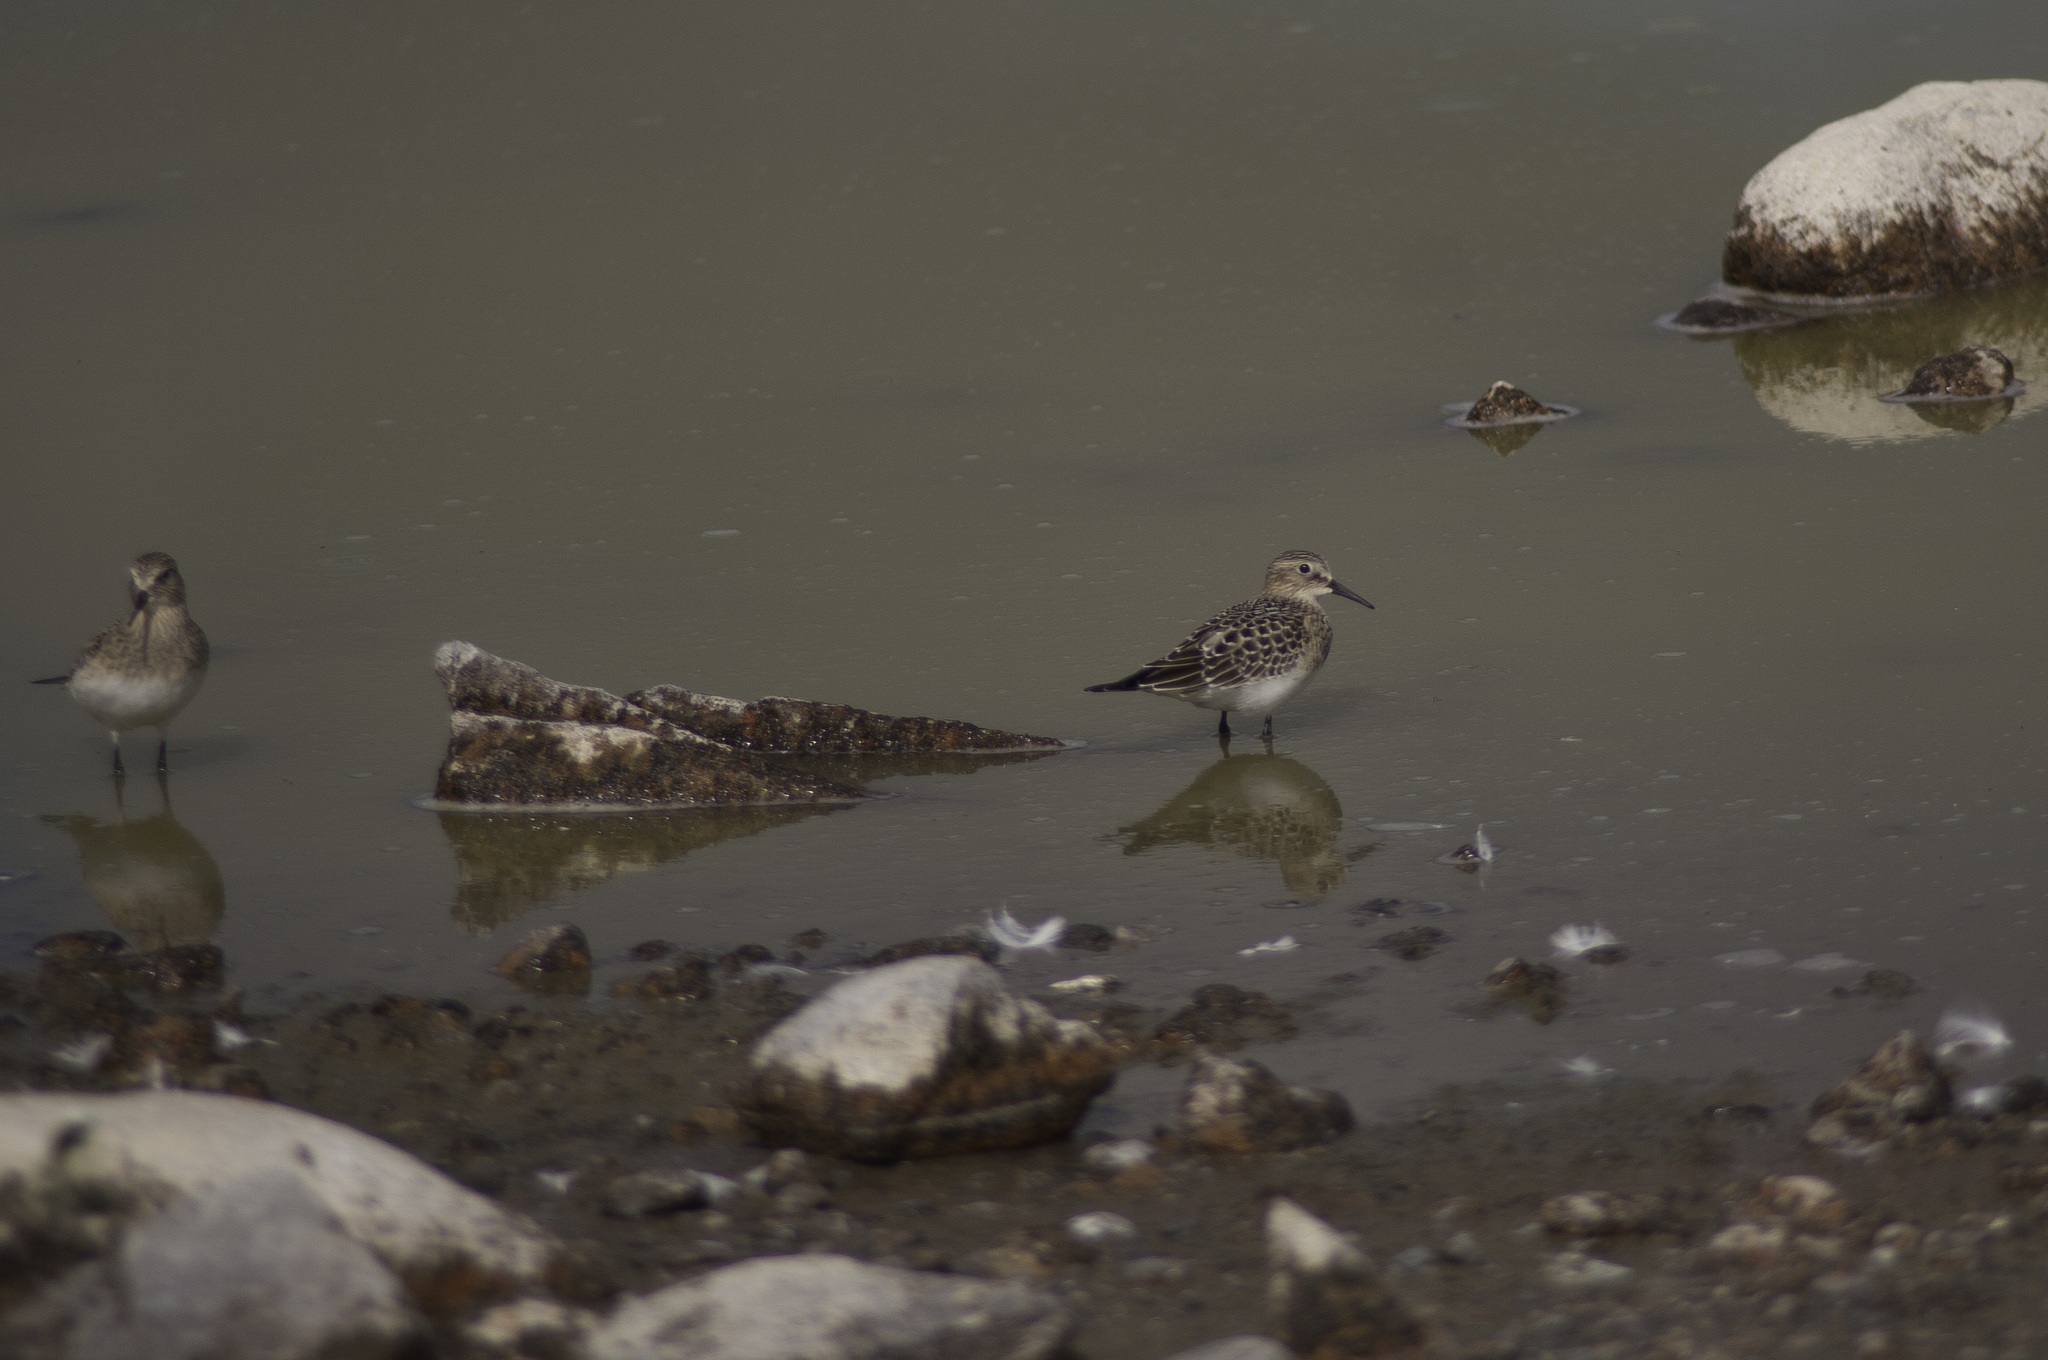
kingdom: Animalia
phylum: Chordata
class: Aves
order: Charadriiformes
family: Scolopacidae
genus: Calidris
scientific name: Calidris bairdii
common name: Baird's sandpiper
